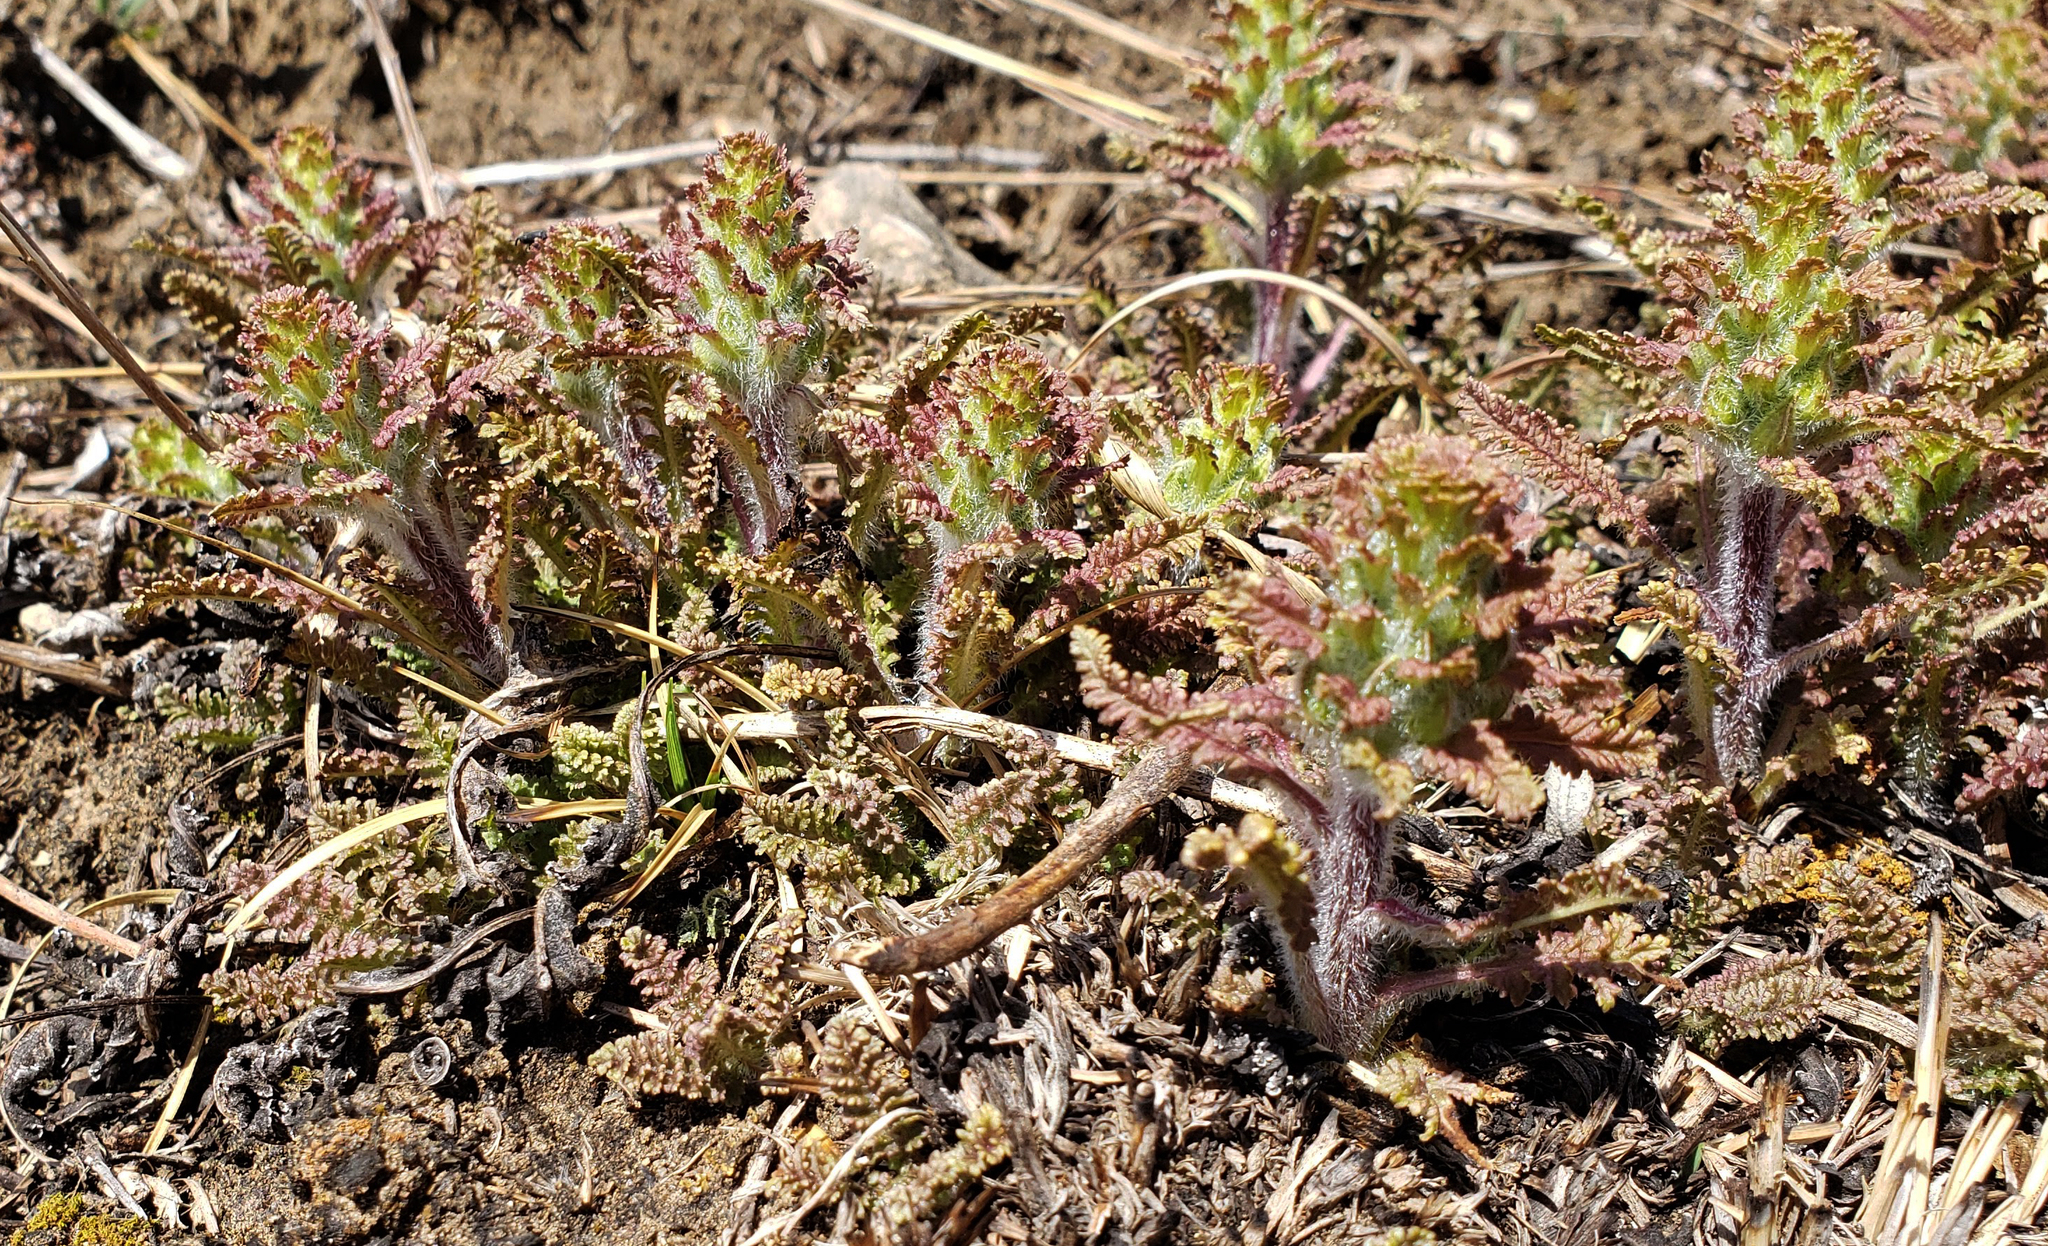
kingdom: Plantae
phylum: Tracheophyta
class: Magnoliopsida
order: Lamiales
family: Orobanchaceae
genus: Pedicularis
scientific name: Pedicularis canadensis
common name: Early lousewort
